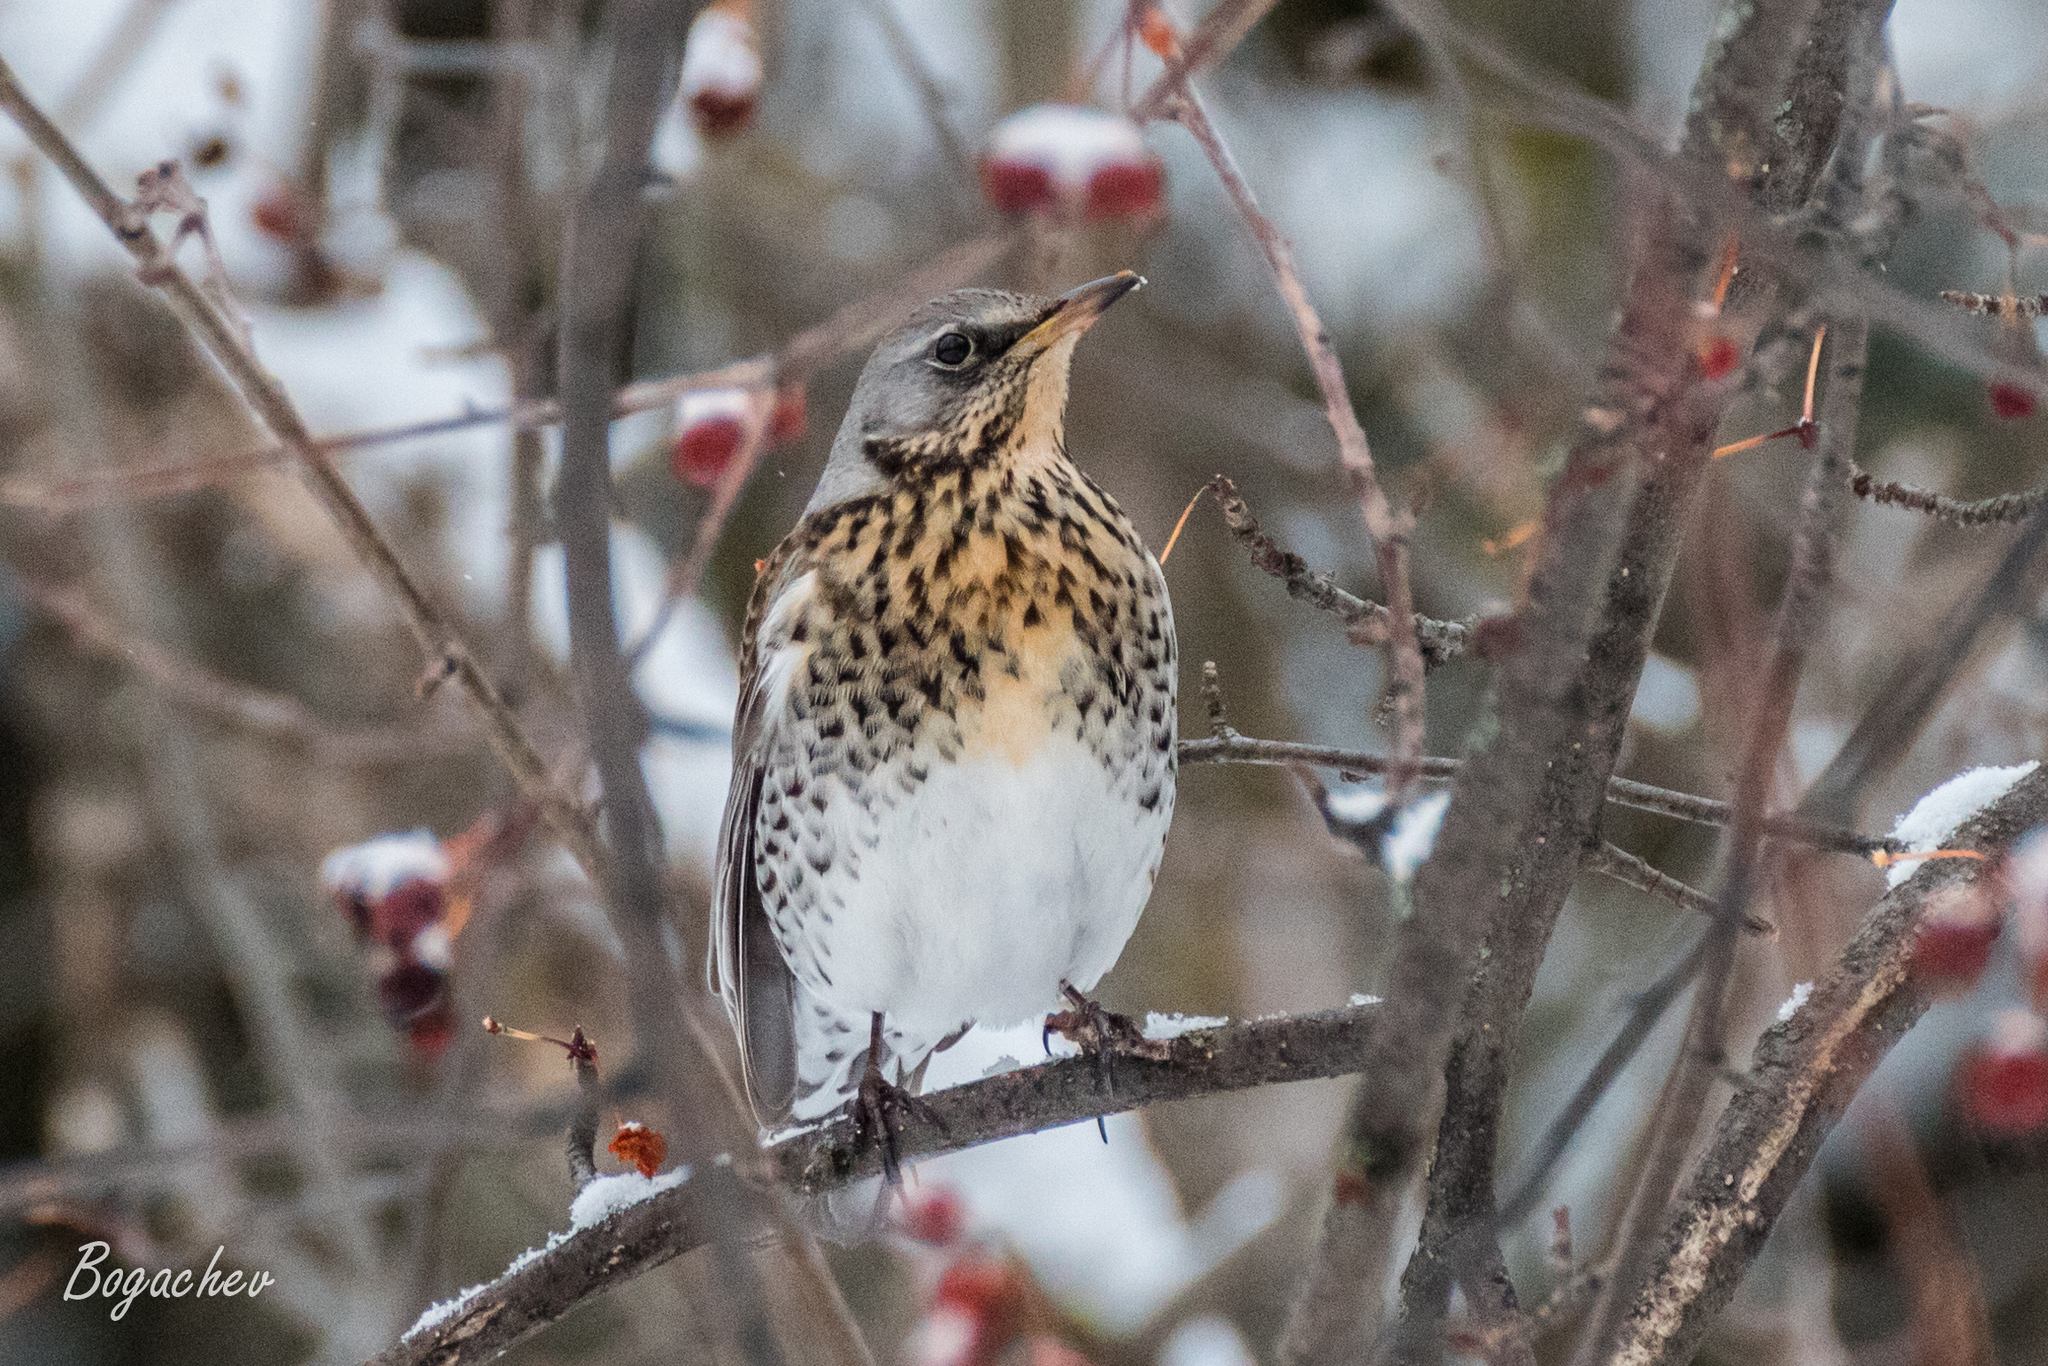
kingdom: Animalia
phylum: Chordata
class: Aves
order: Passeriformes
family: Turdidae
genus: Turdus
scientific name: Turdus pilaris
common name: Fieldfare
